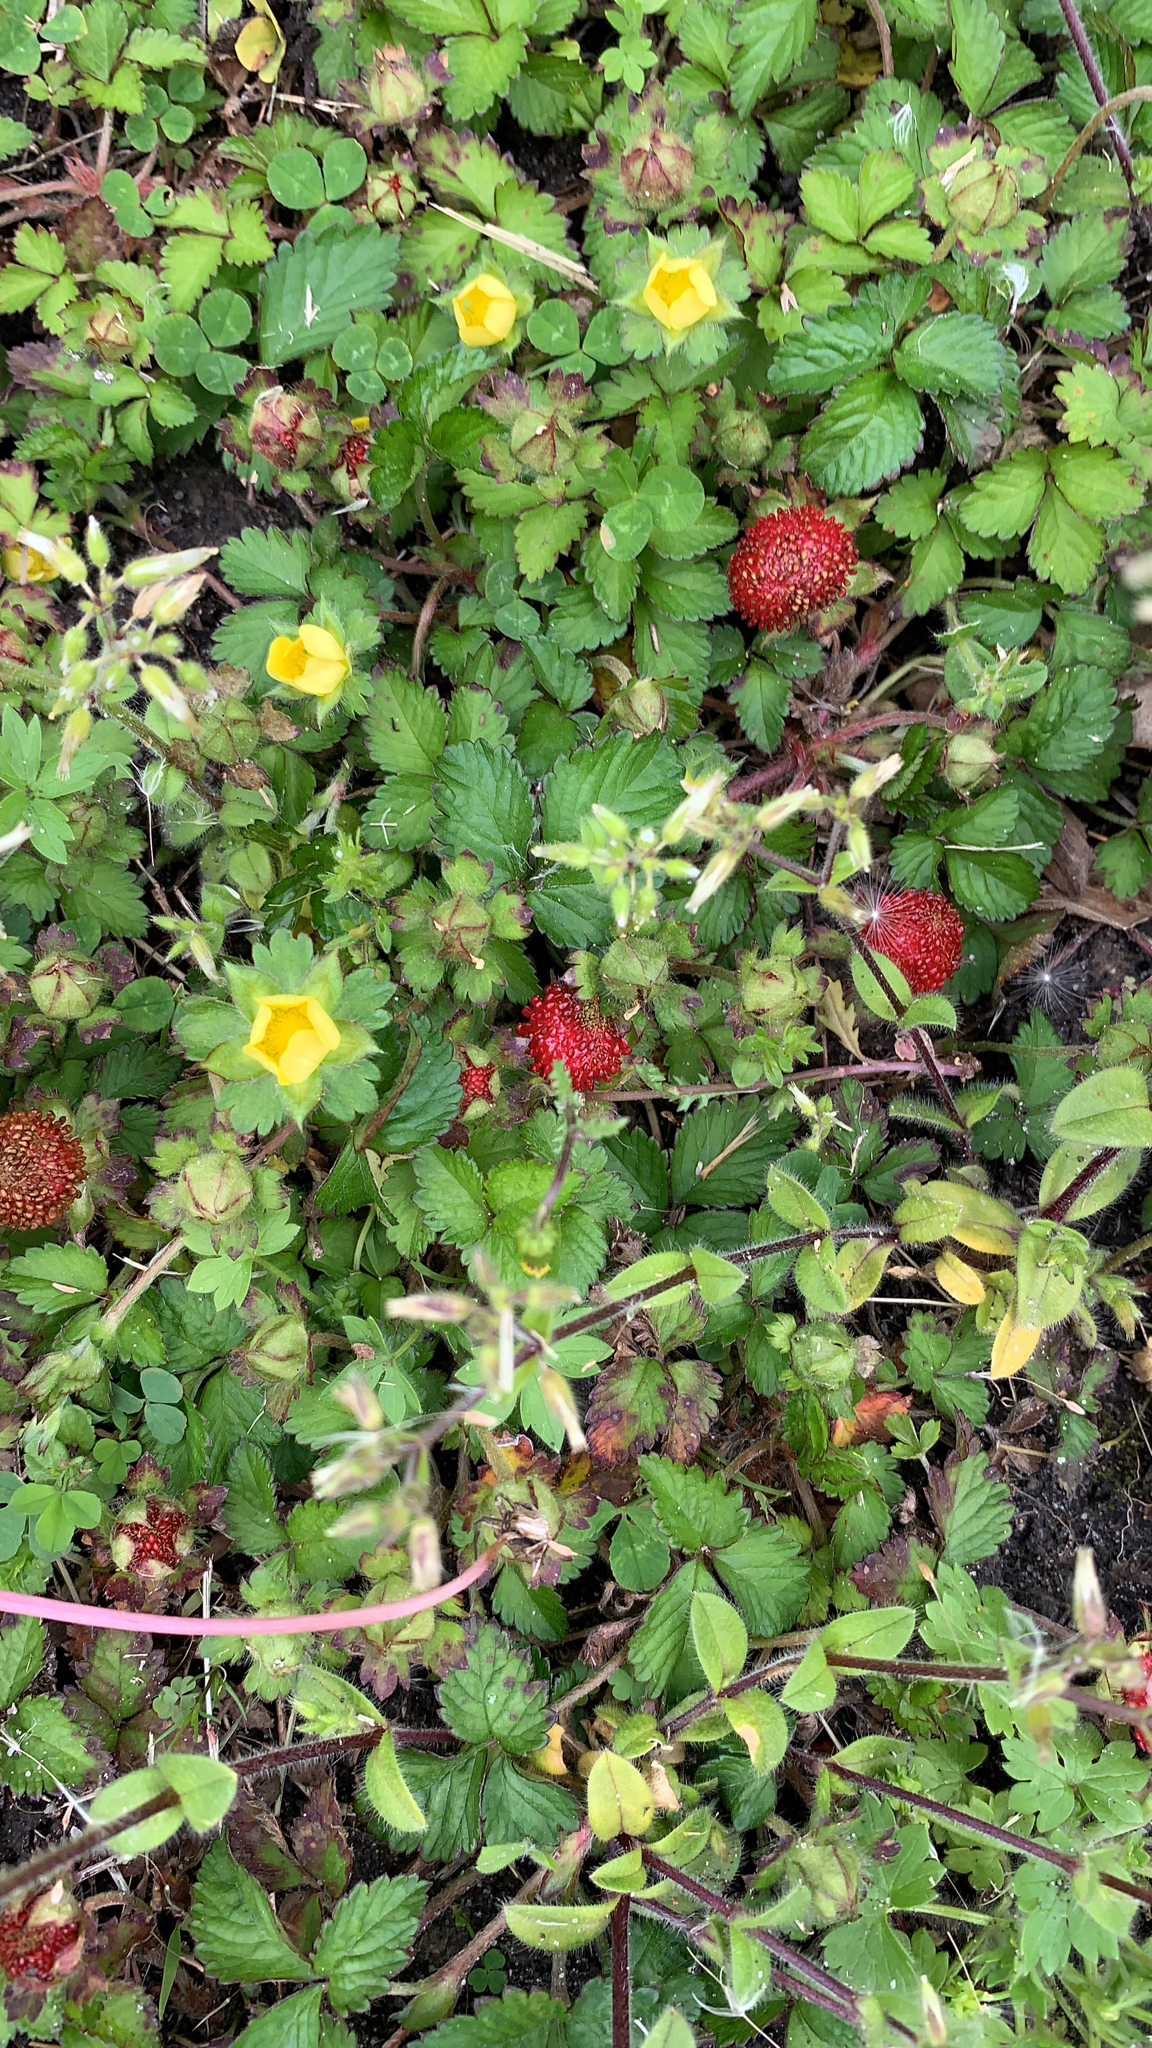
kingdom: Plantae
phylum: Tracheophyta
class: Magnoliopsida
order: Rosales
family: Rosaceae
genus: Potentilla
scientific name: Potentilla indica
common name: Yellow-flowered strawberry
